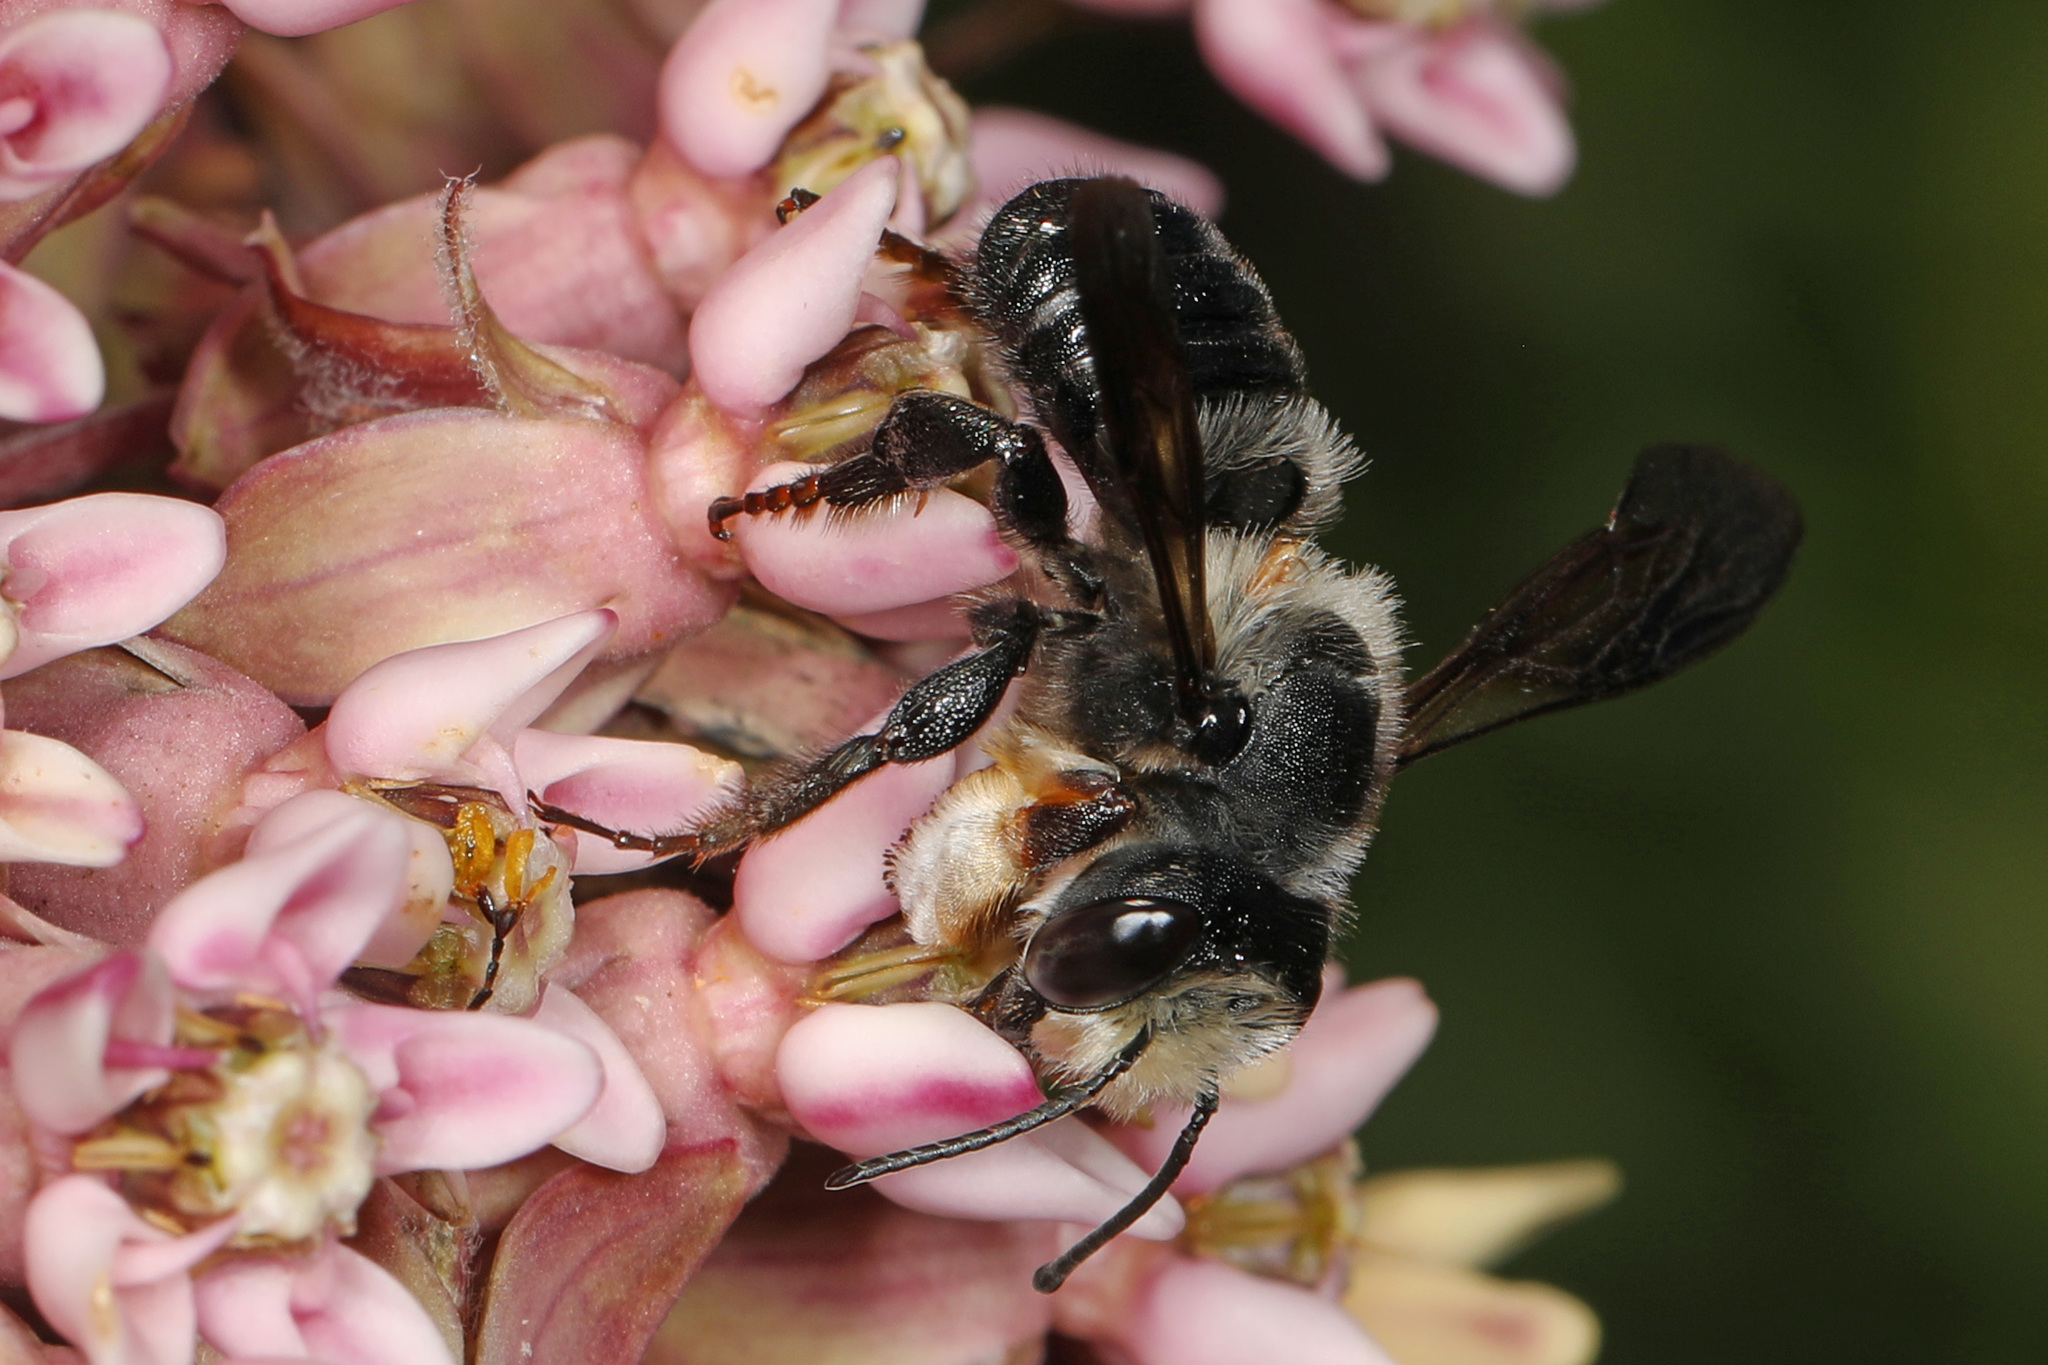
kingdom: Animalia
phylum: Arthropoda
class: Insecta
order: Hymenoptera
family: Megachilidae
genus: Megachile
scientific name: Megachile xylocopoides
